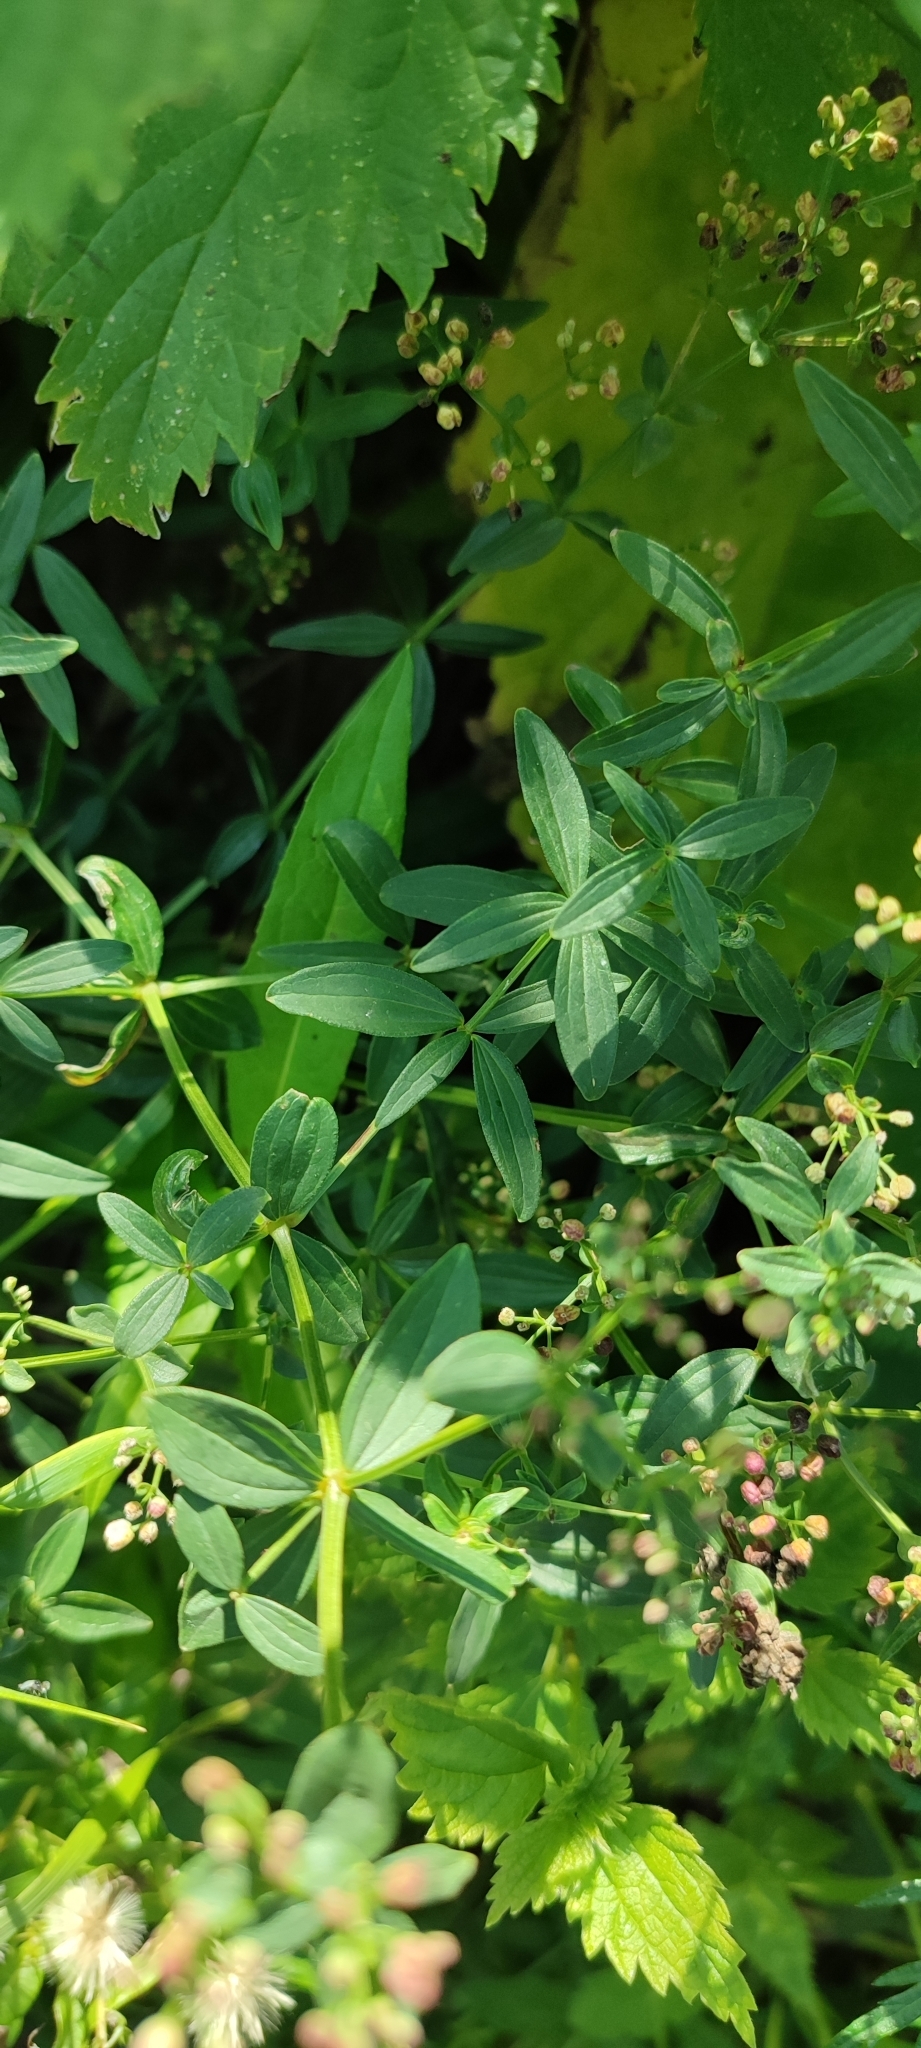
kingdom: Plantae
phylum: Tracheophyta
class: Magnoliopsida
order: Gentianales
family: Rubiaceae
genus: Galium
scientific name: Galium rubioides
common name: European bedstraw
